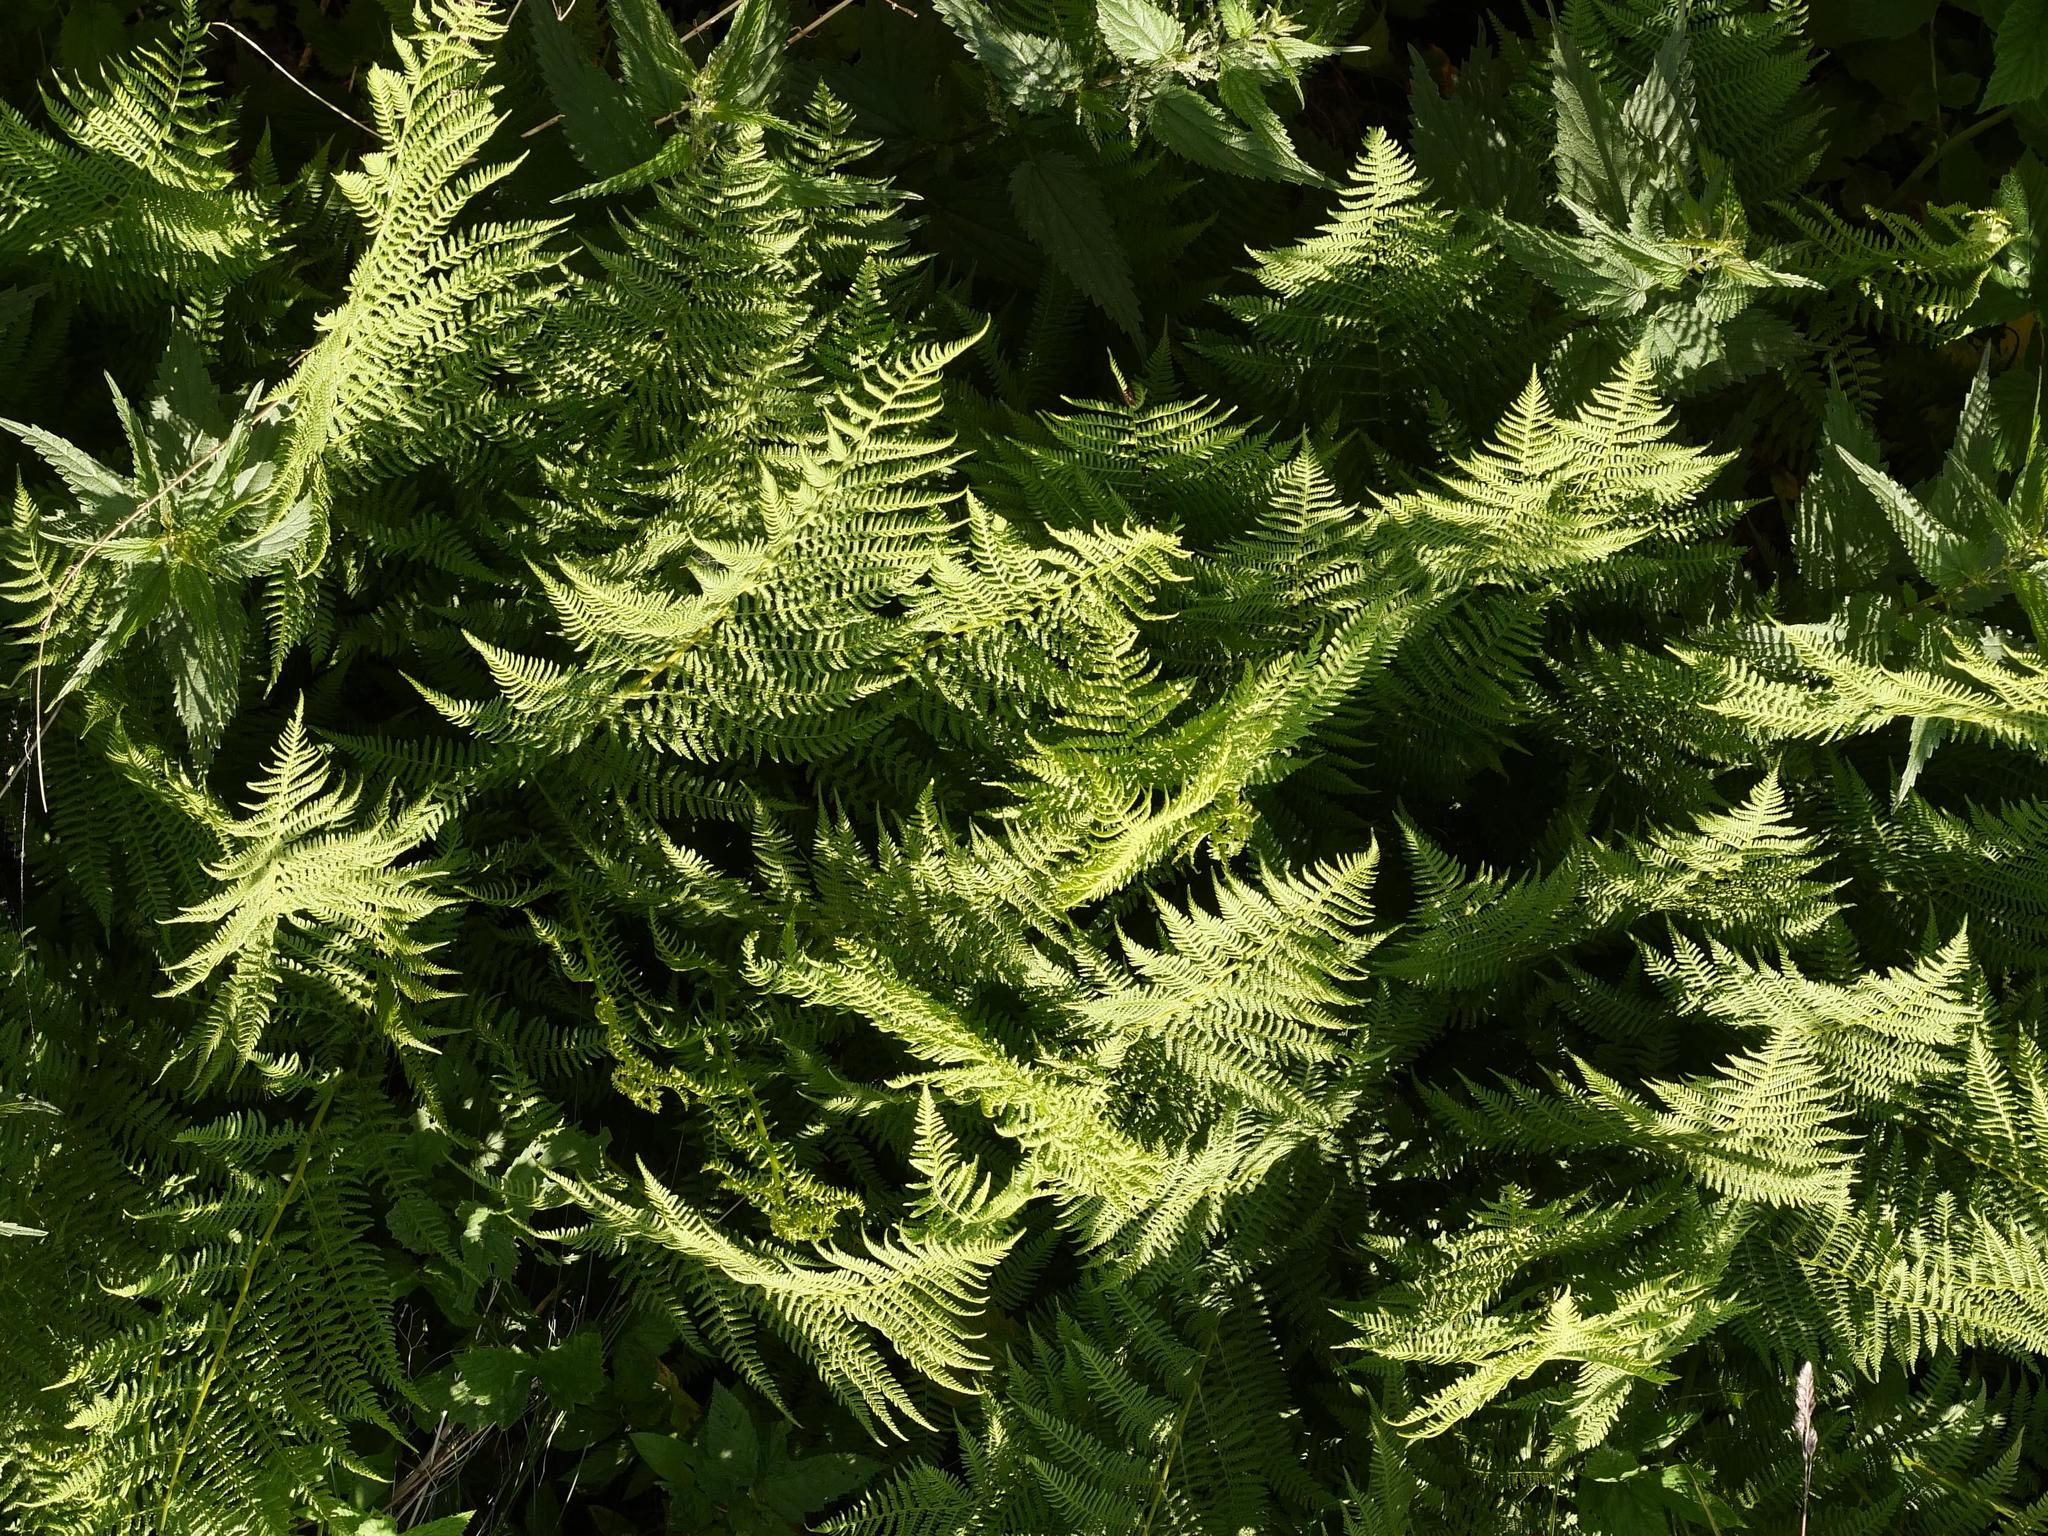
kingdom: Plantae
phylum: Tracheophyta
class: Polypodiopsida
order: Polypodiales
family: Athyriaceae
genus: Athyrium
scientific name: Athyrium filix-femina
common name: Lady fern
